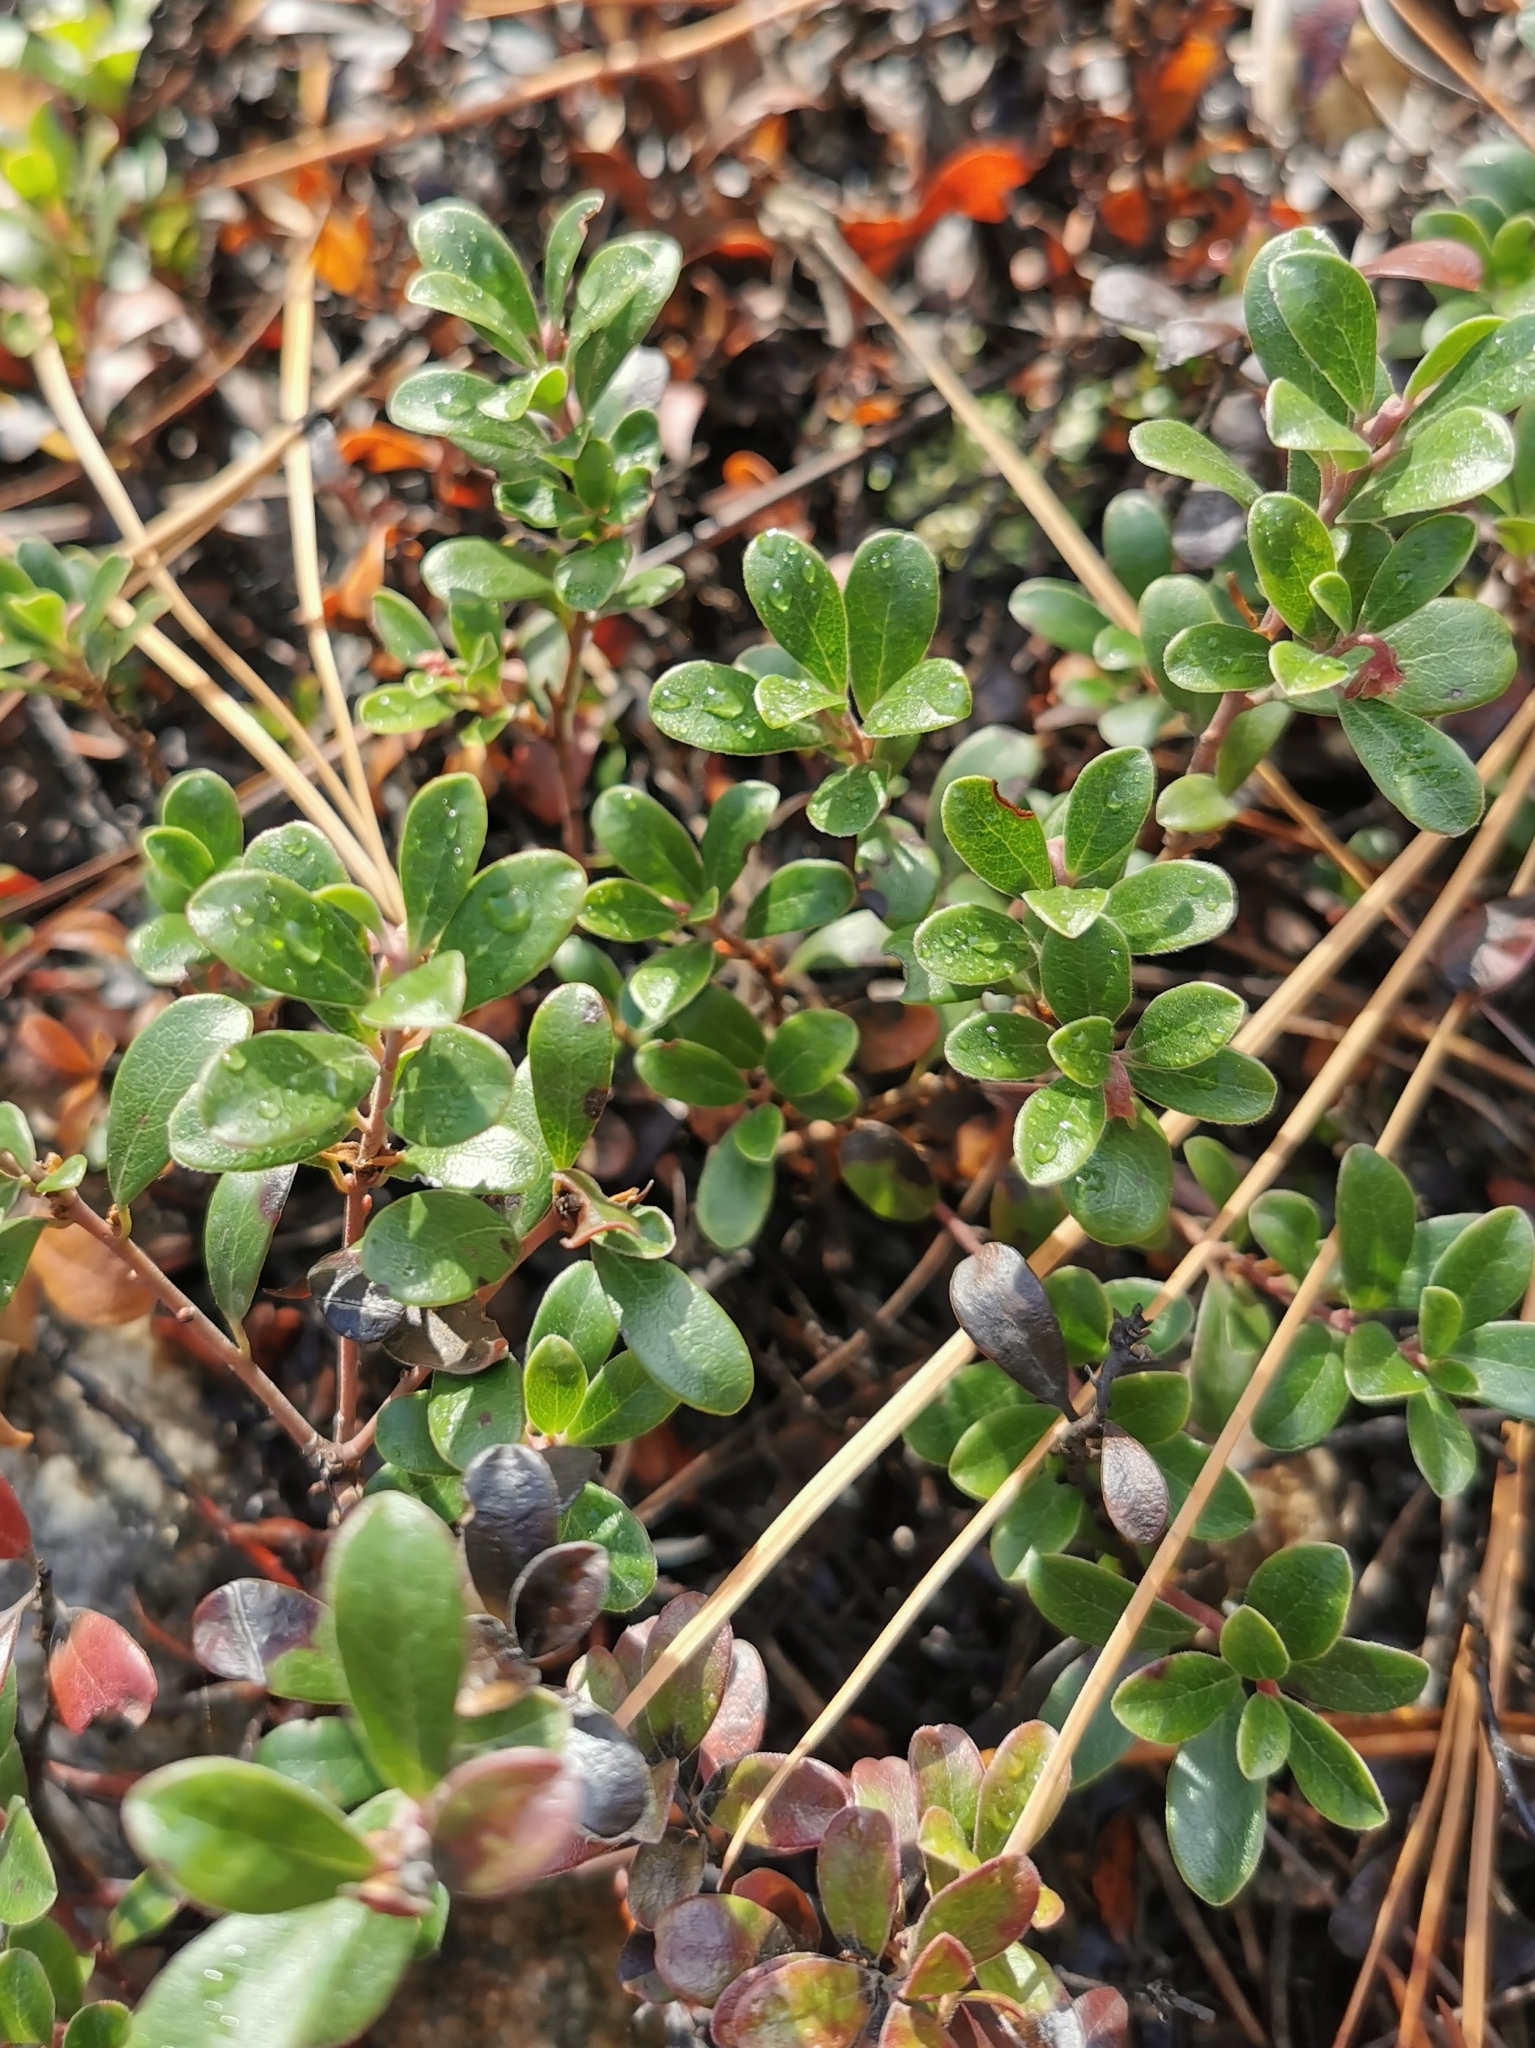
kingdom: Plantae
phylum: Tracheophyta
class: Magnoliopsida
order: Ericales
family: Ericaceae
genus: Arctostaphylos
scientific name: Arctostaphylos uva-ursi
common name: Bearberry
